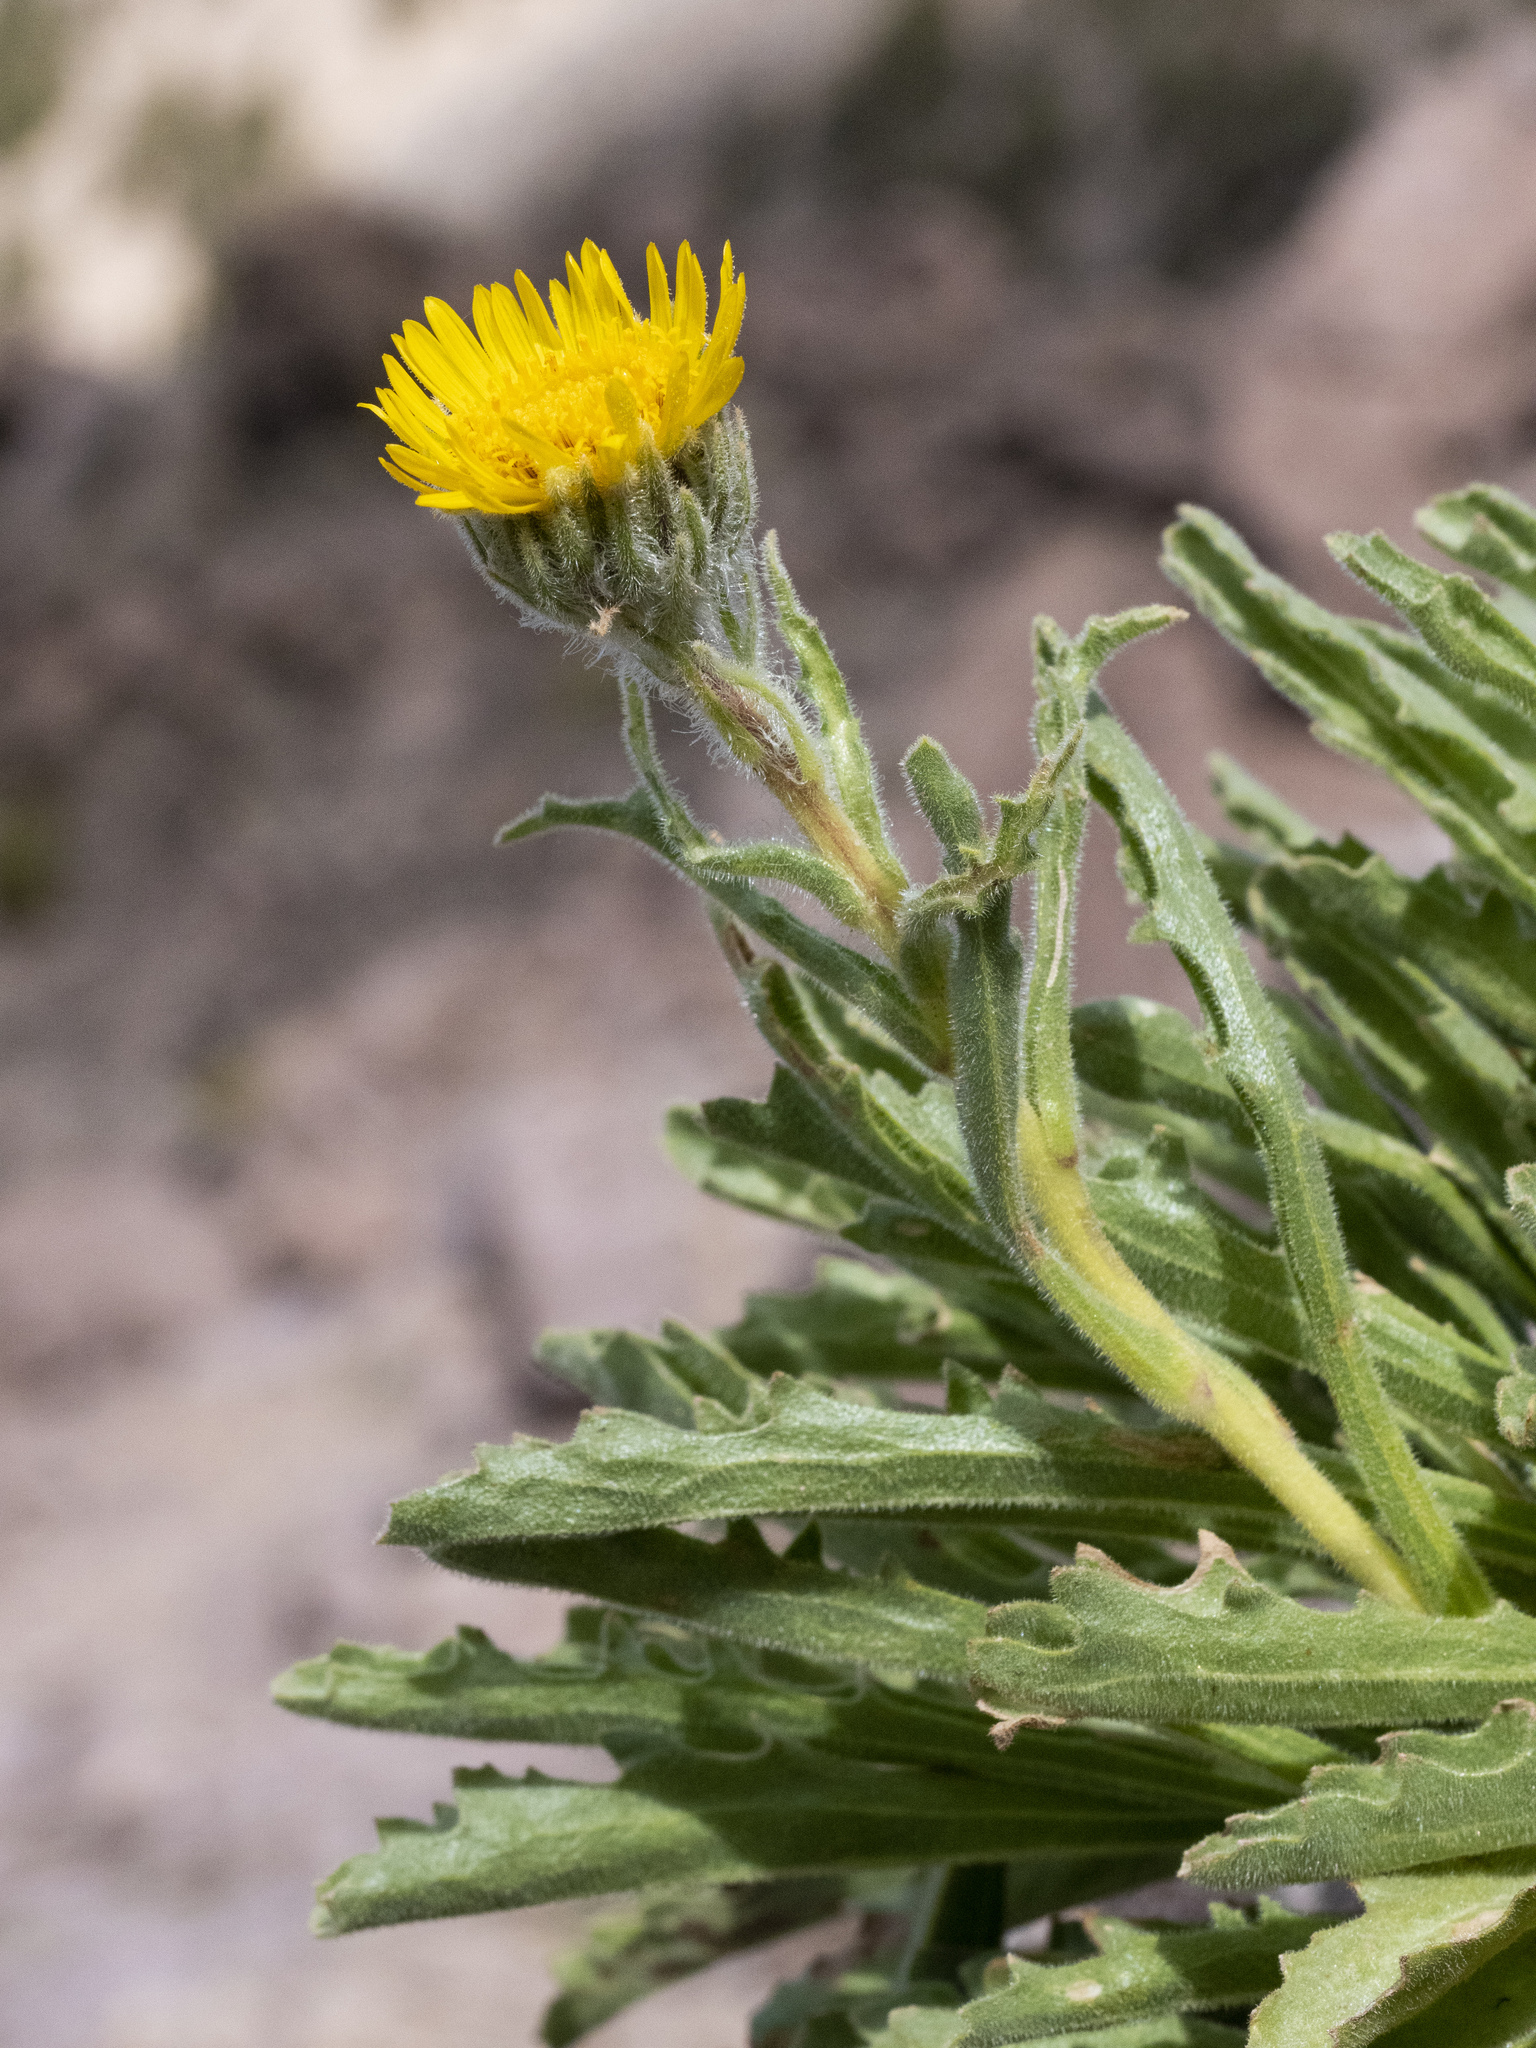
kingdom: Plantae
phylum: Tracheophyta
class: Magnoliopsida
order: Asterales
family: Asteraceae
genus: Hulsea
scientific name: Hulsea algida
